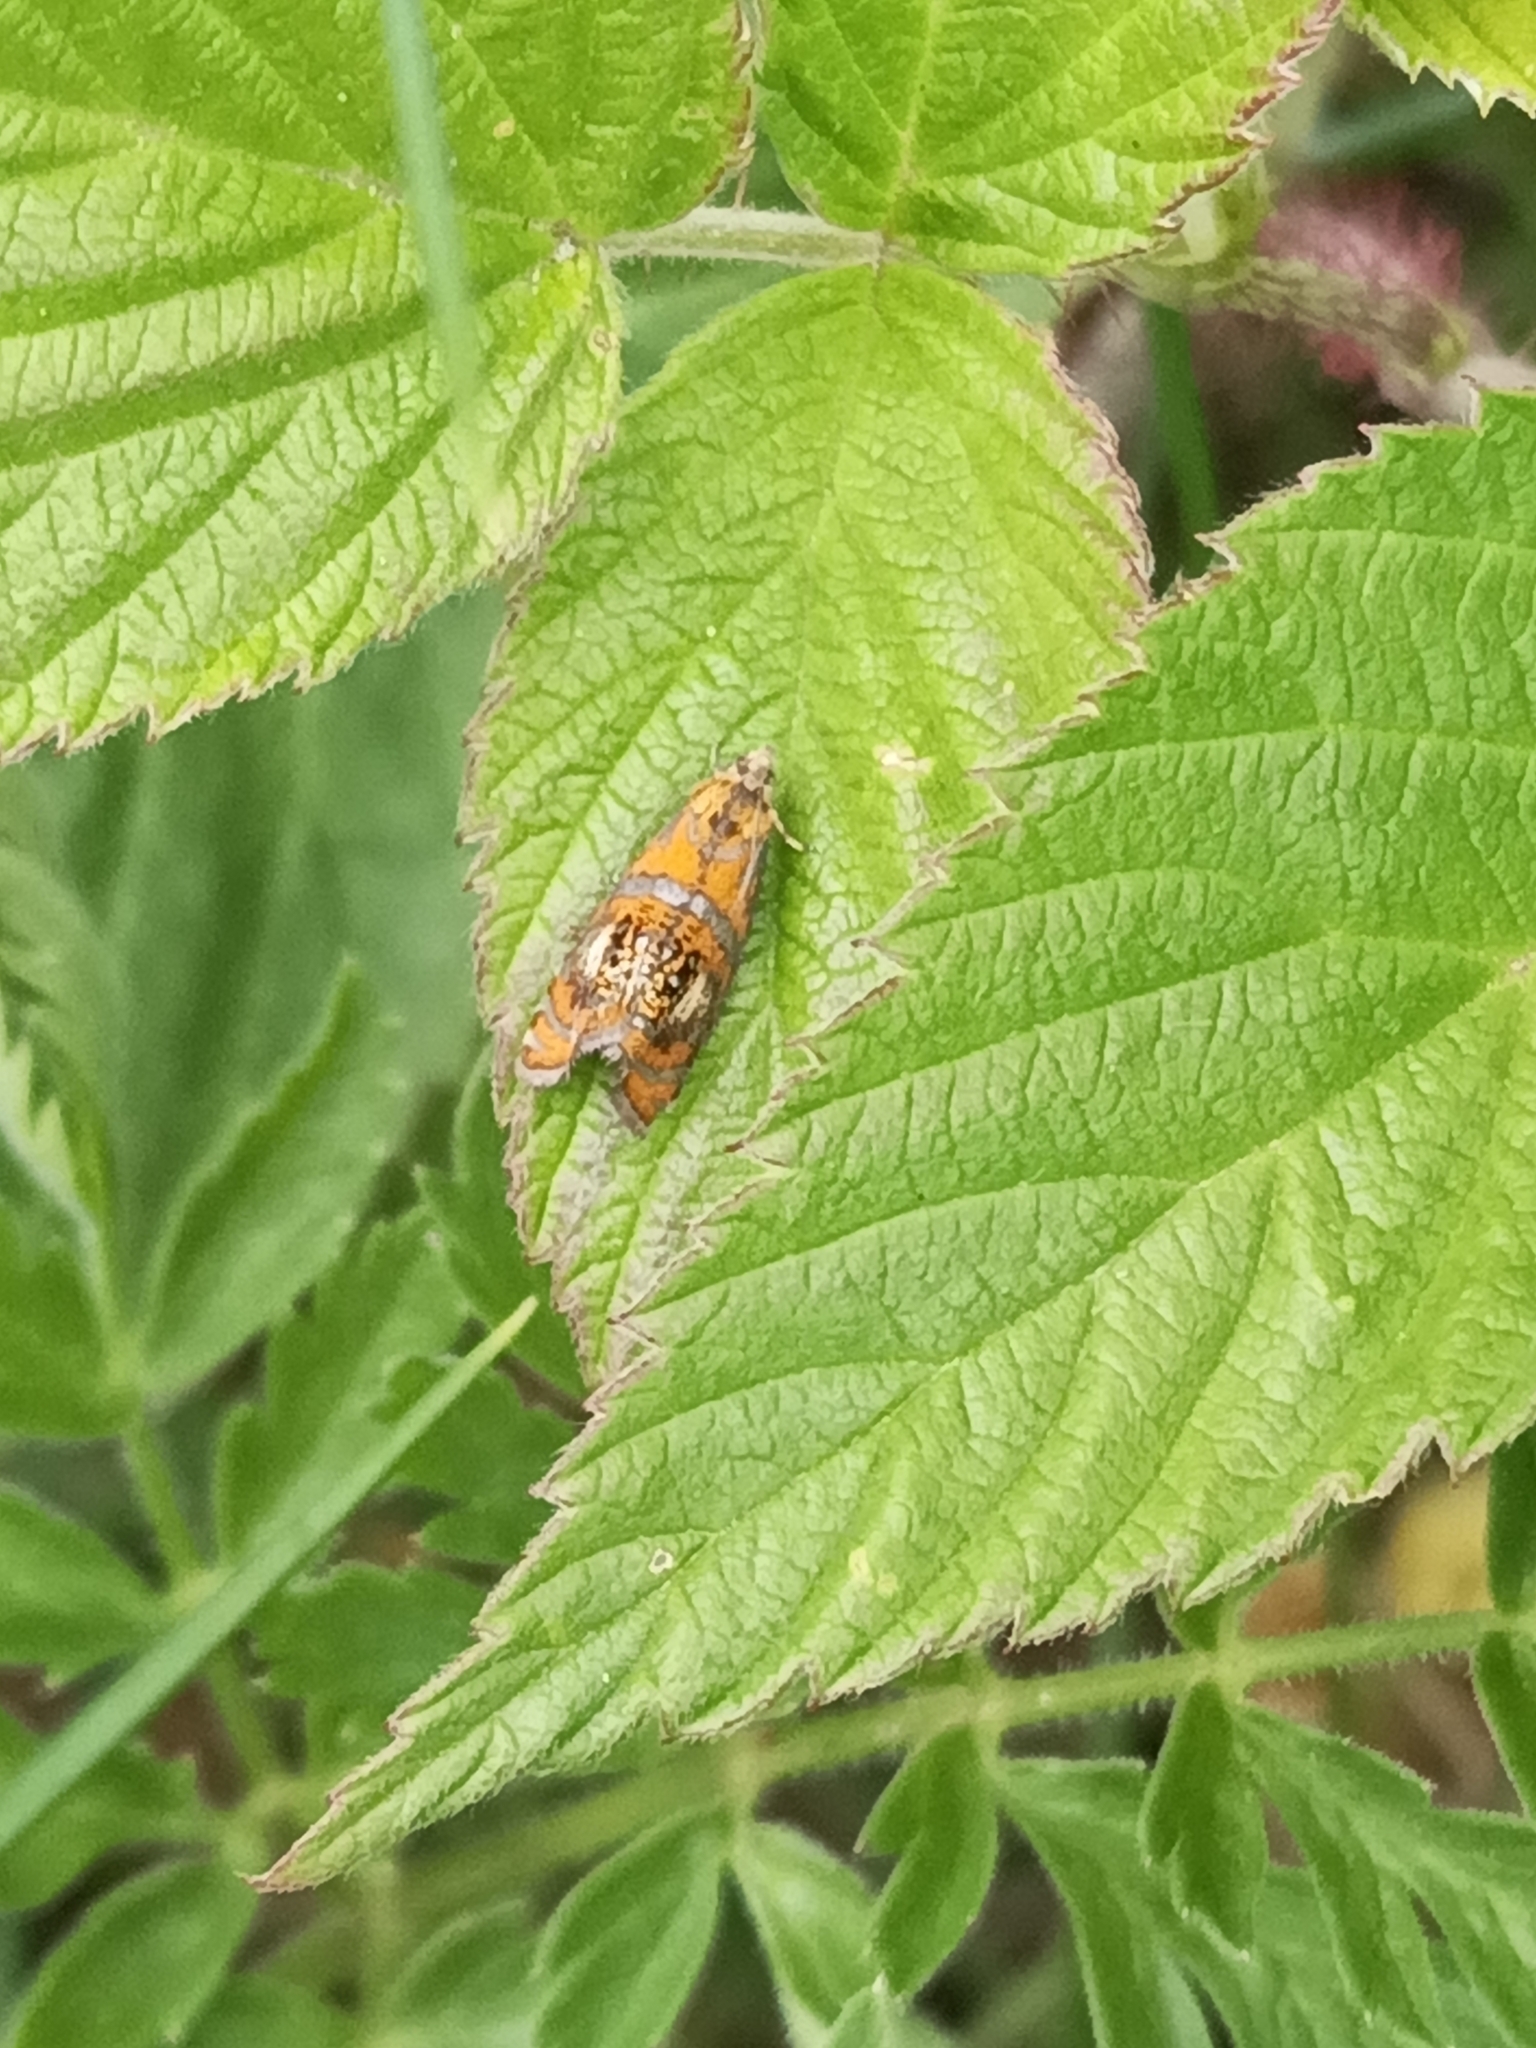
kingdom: Animalia
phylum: Arthropoda
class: Insecta
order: Lepidoptera
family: Tortricidae
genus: Olethreutes
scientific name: Olethreutes arcuella
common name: Arched marble
